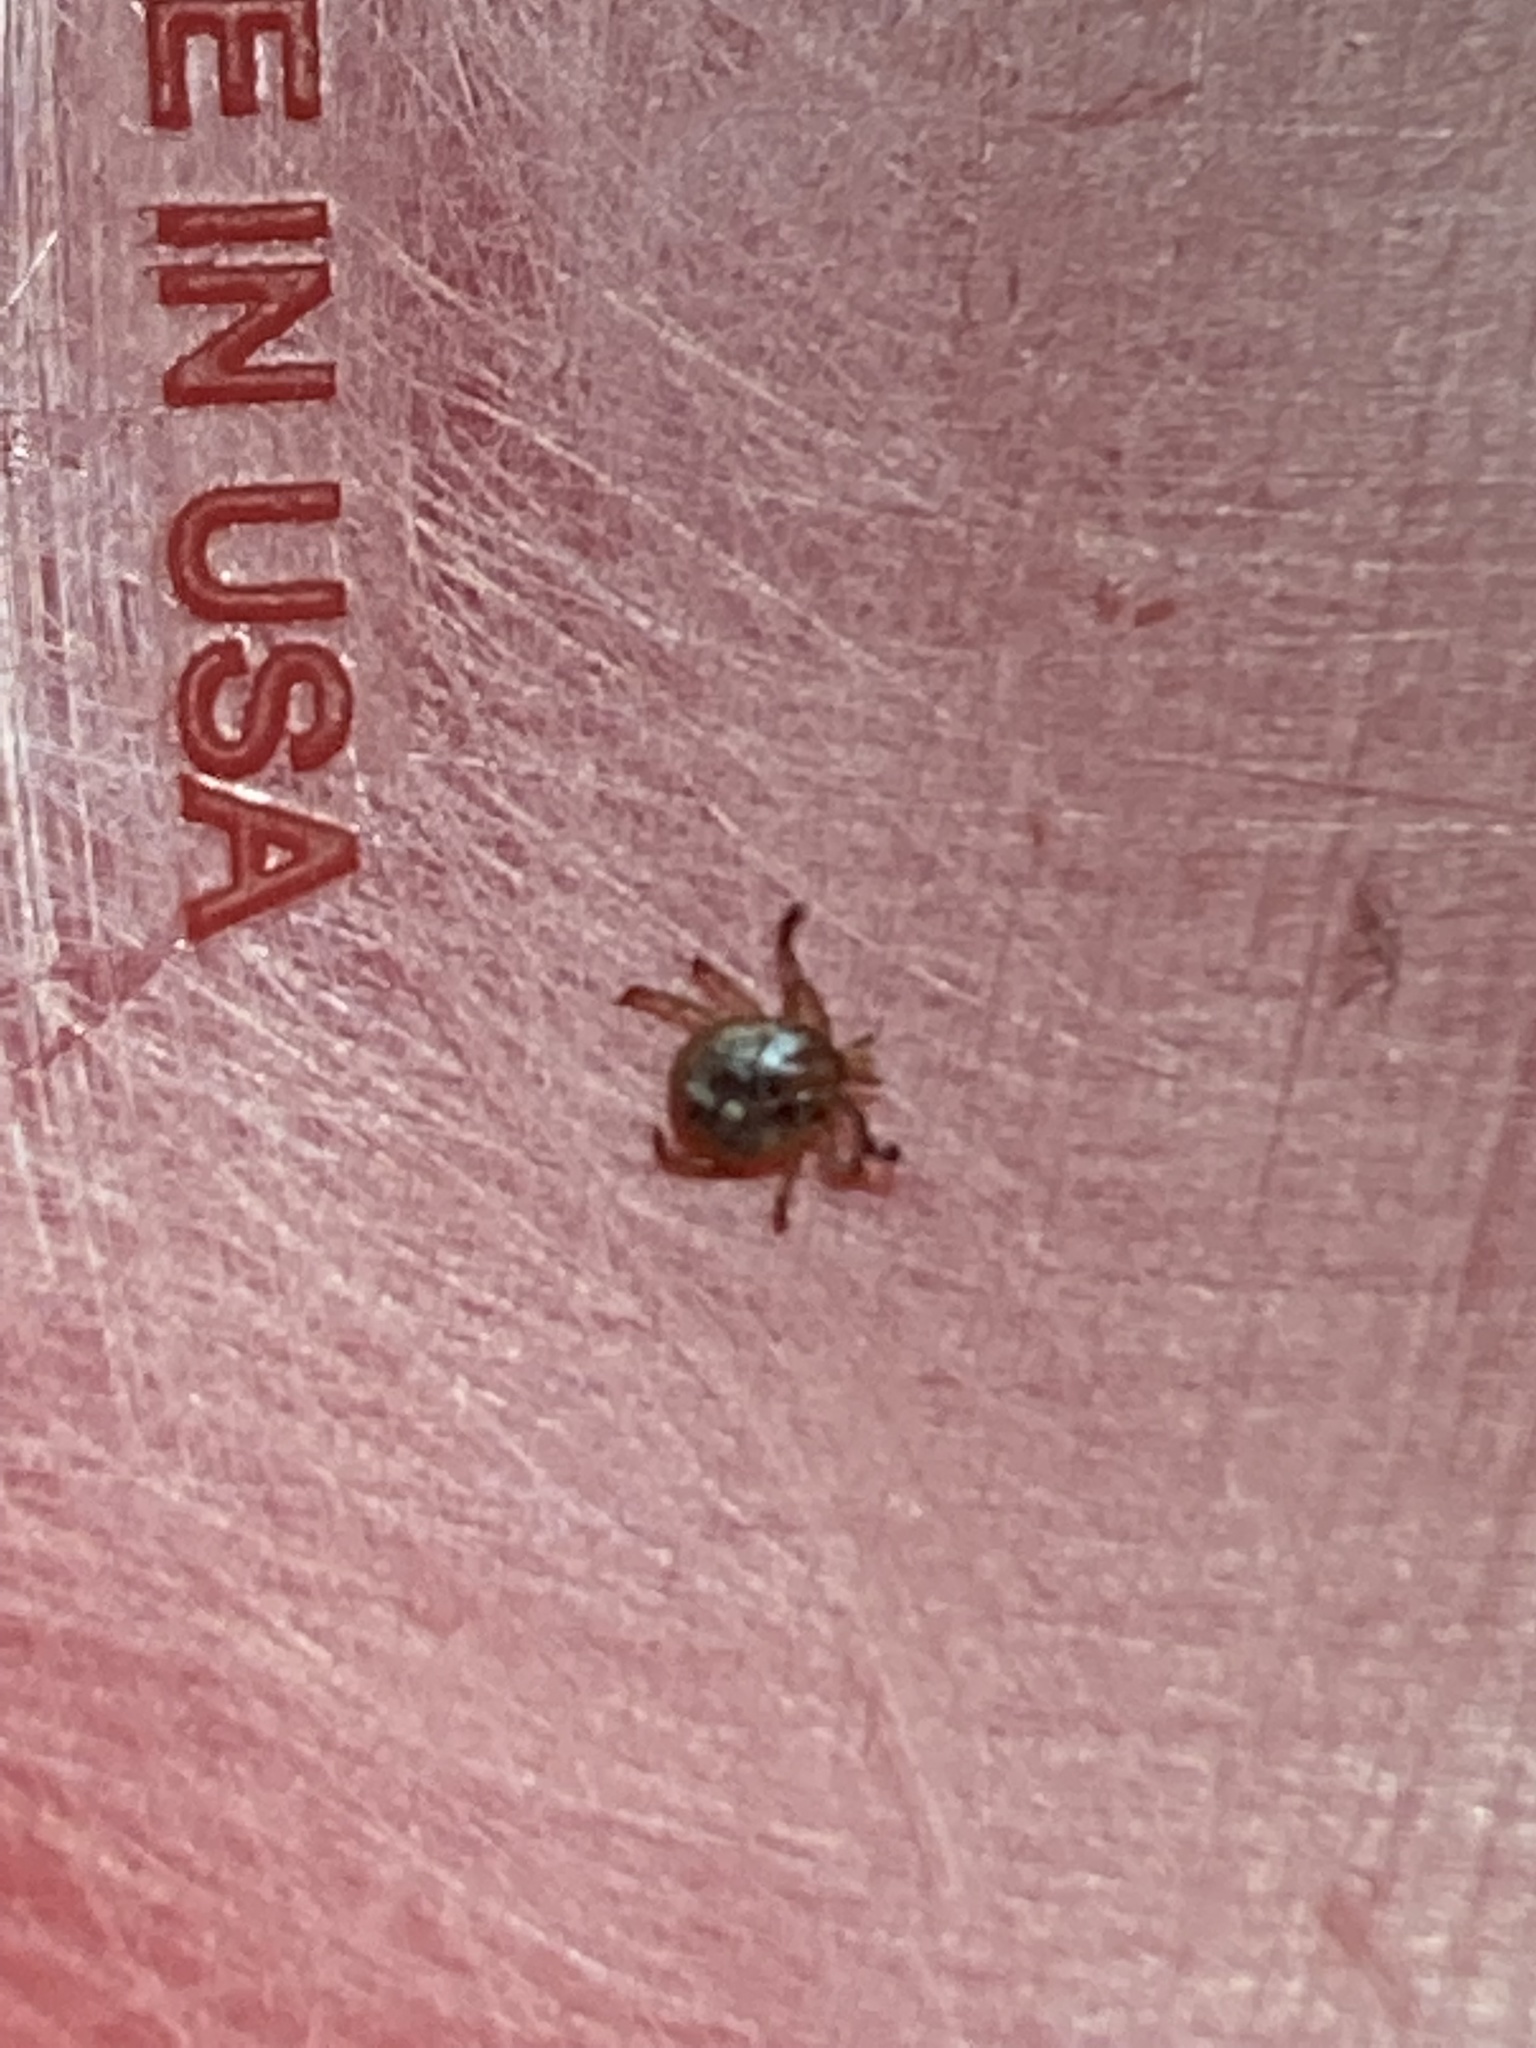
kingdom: Animalia
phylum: Arthropoda
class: Arachnida
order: Ixodida
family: Ixodidae
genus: Amblyomma
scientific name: Amblyomma americanum
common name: Lone star tick
